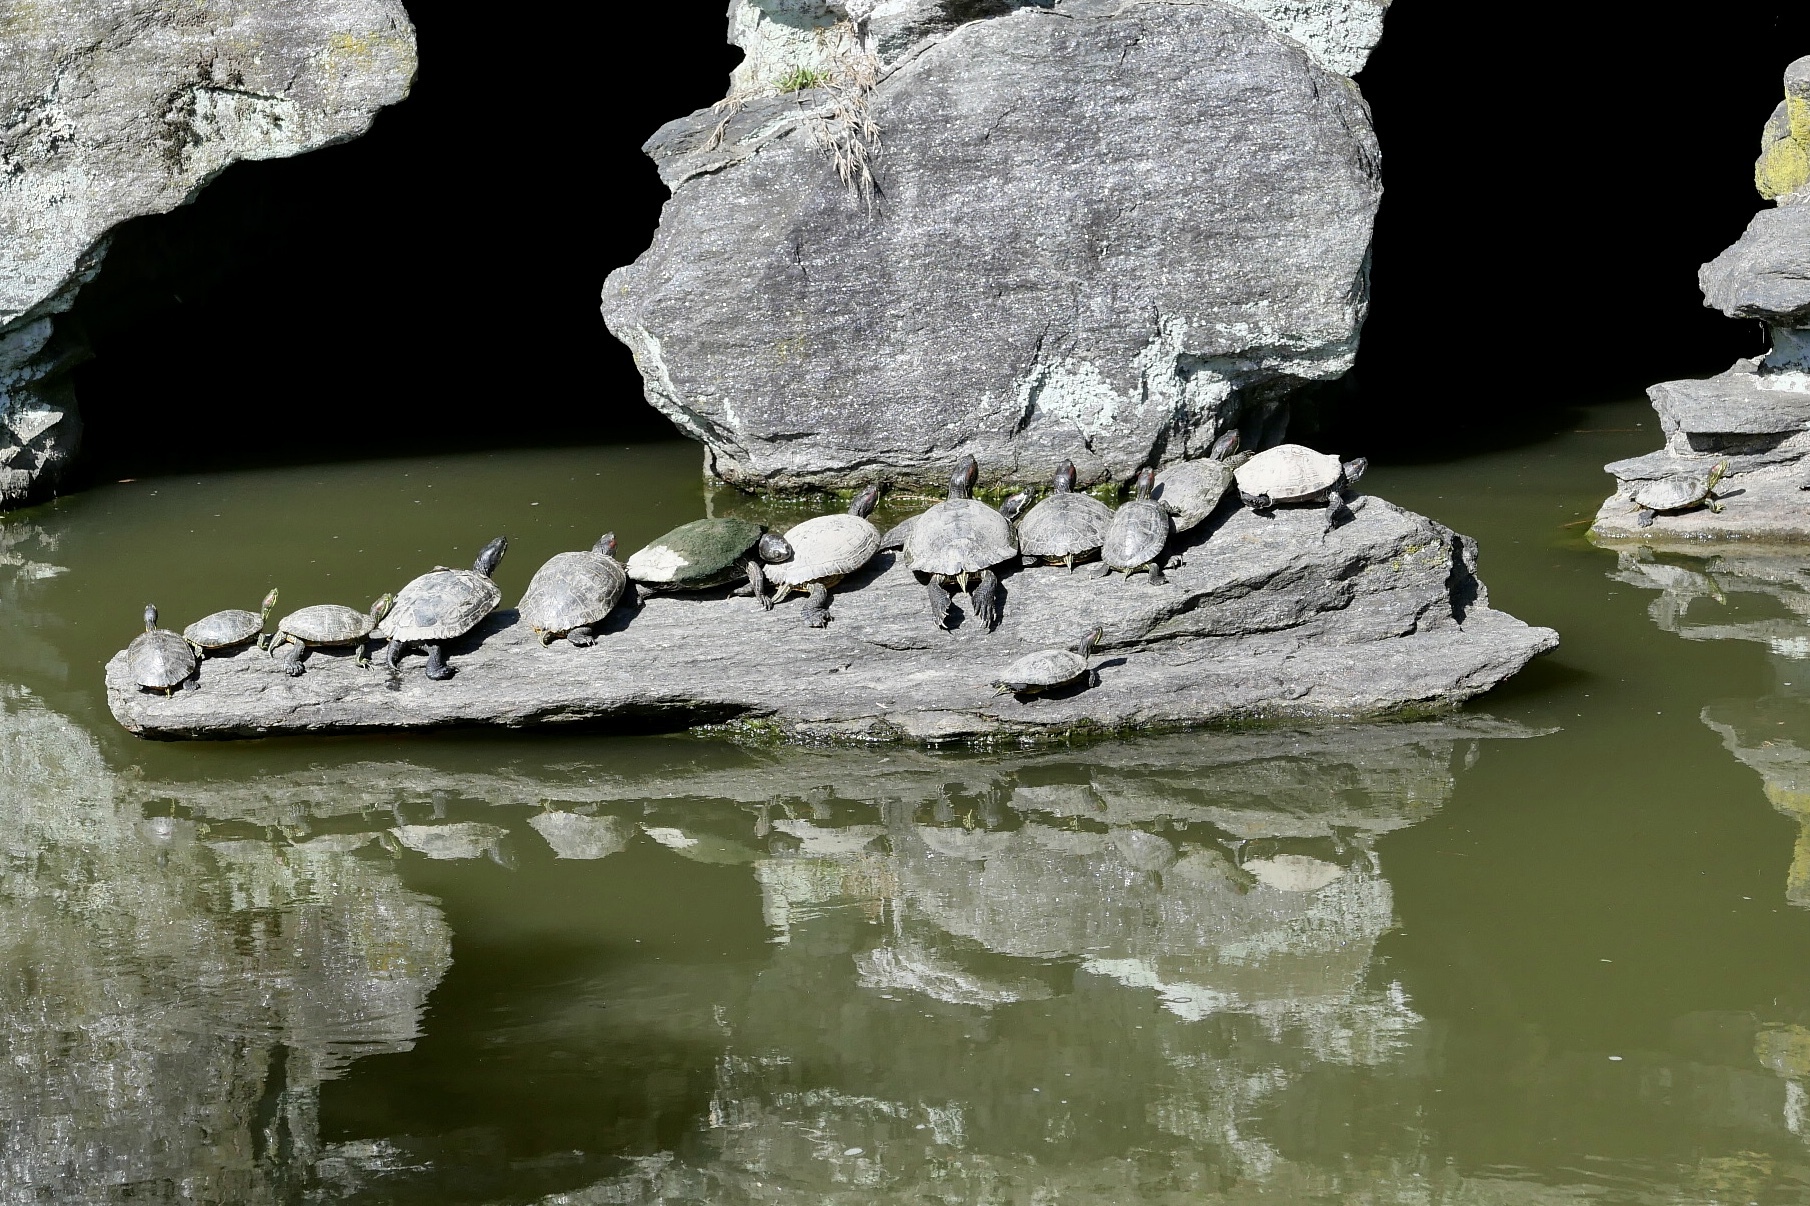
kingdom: Animalia
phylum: Chordata
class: Testudines
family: Emydidae
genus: Trachemys
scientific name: Trachemys scripta
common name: Slider
